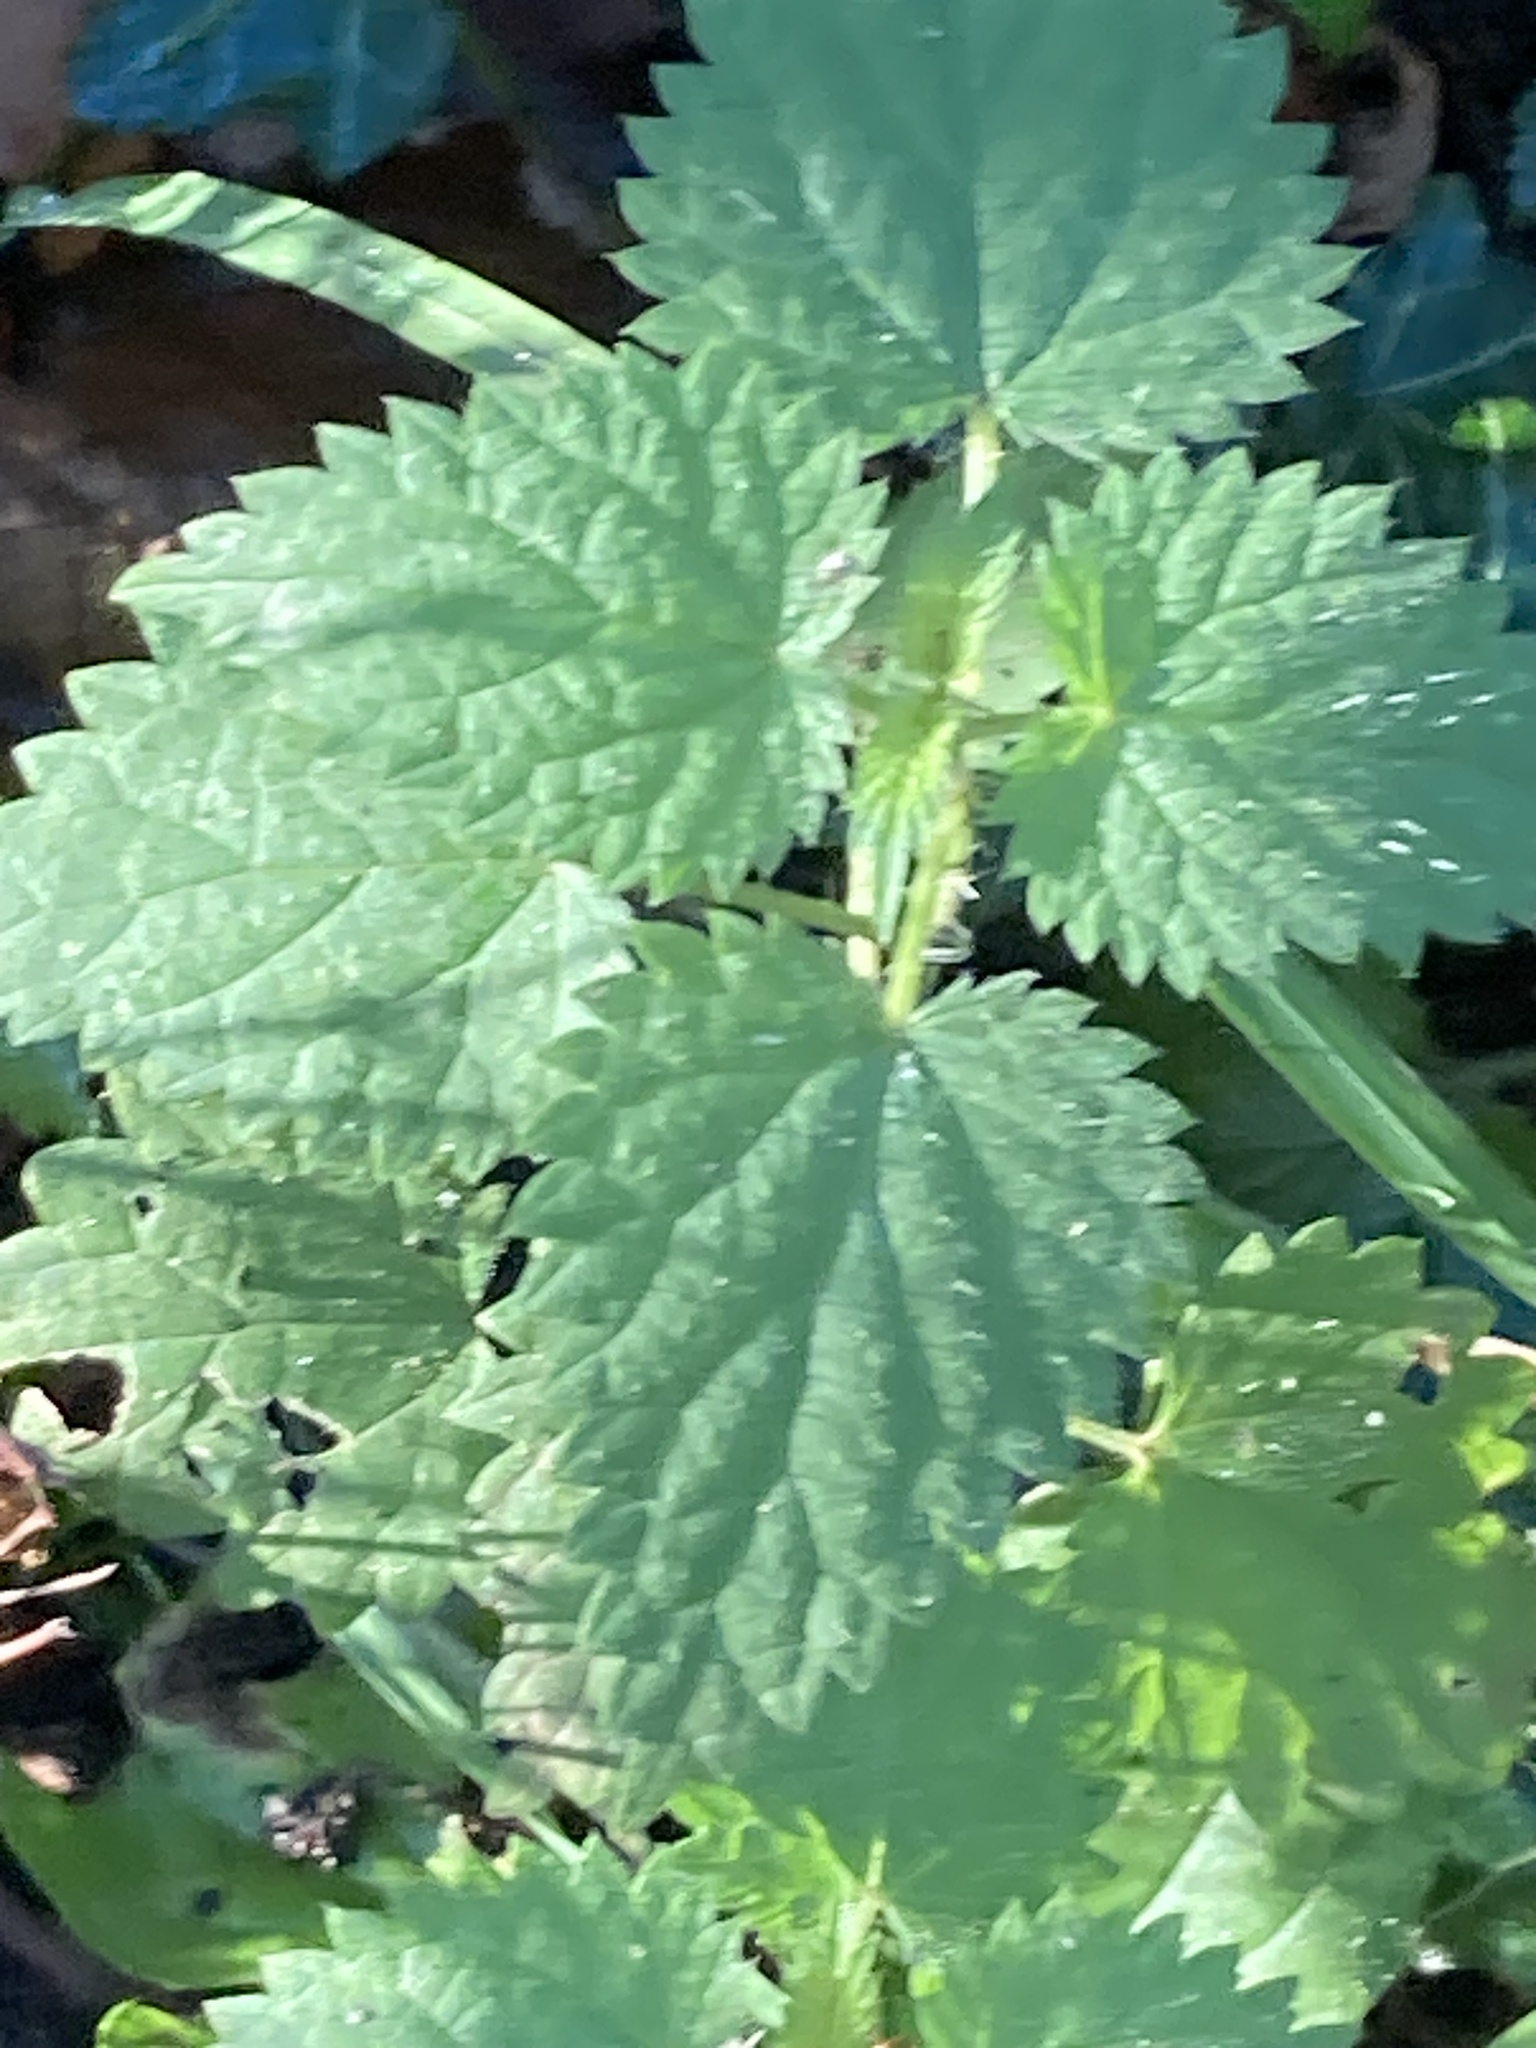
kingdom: Plantae
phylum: Tracheophyta
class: Magnoliopsida
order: Rosales
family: Urticaceae
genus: Urtica
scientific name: Urtica dioica
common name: Common nettle
